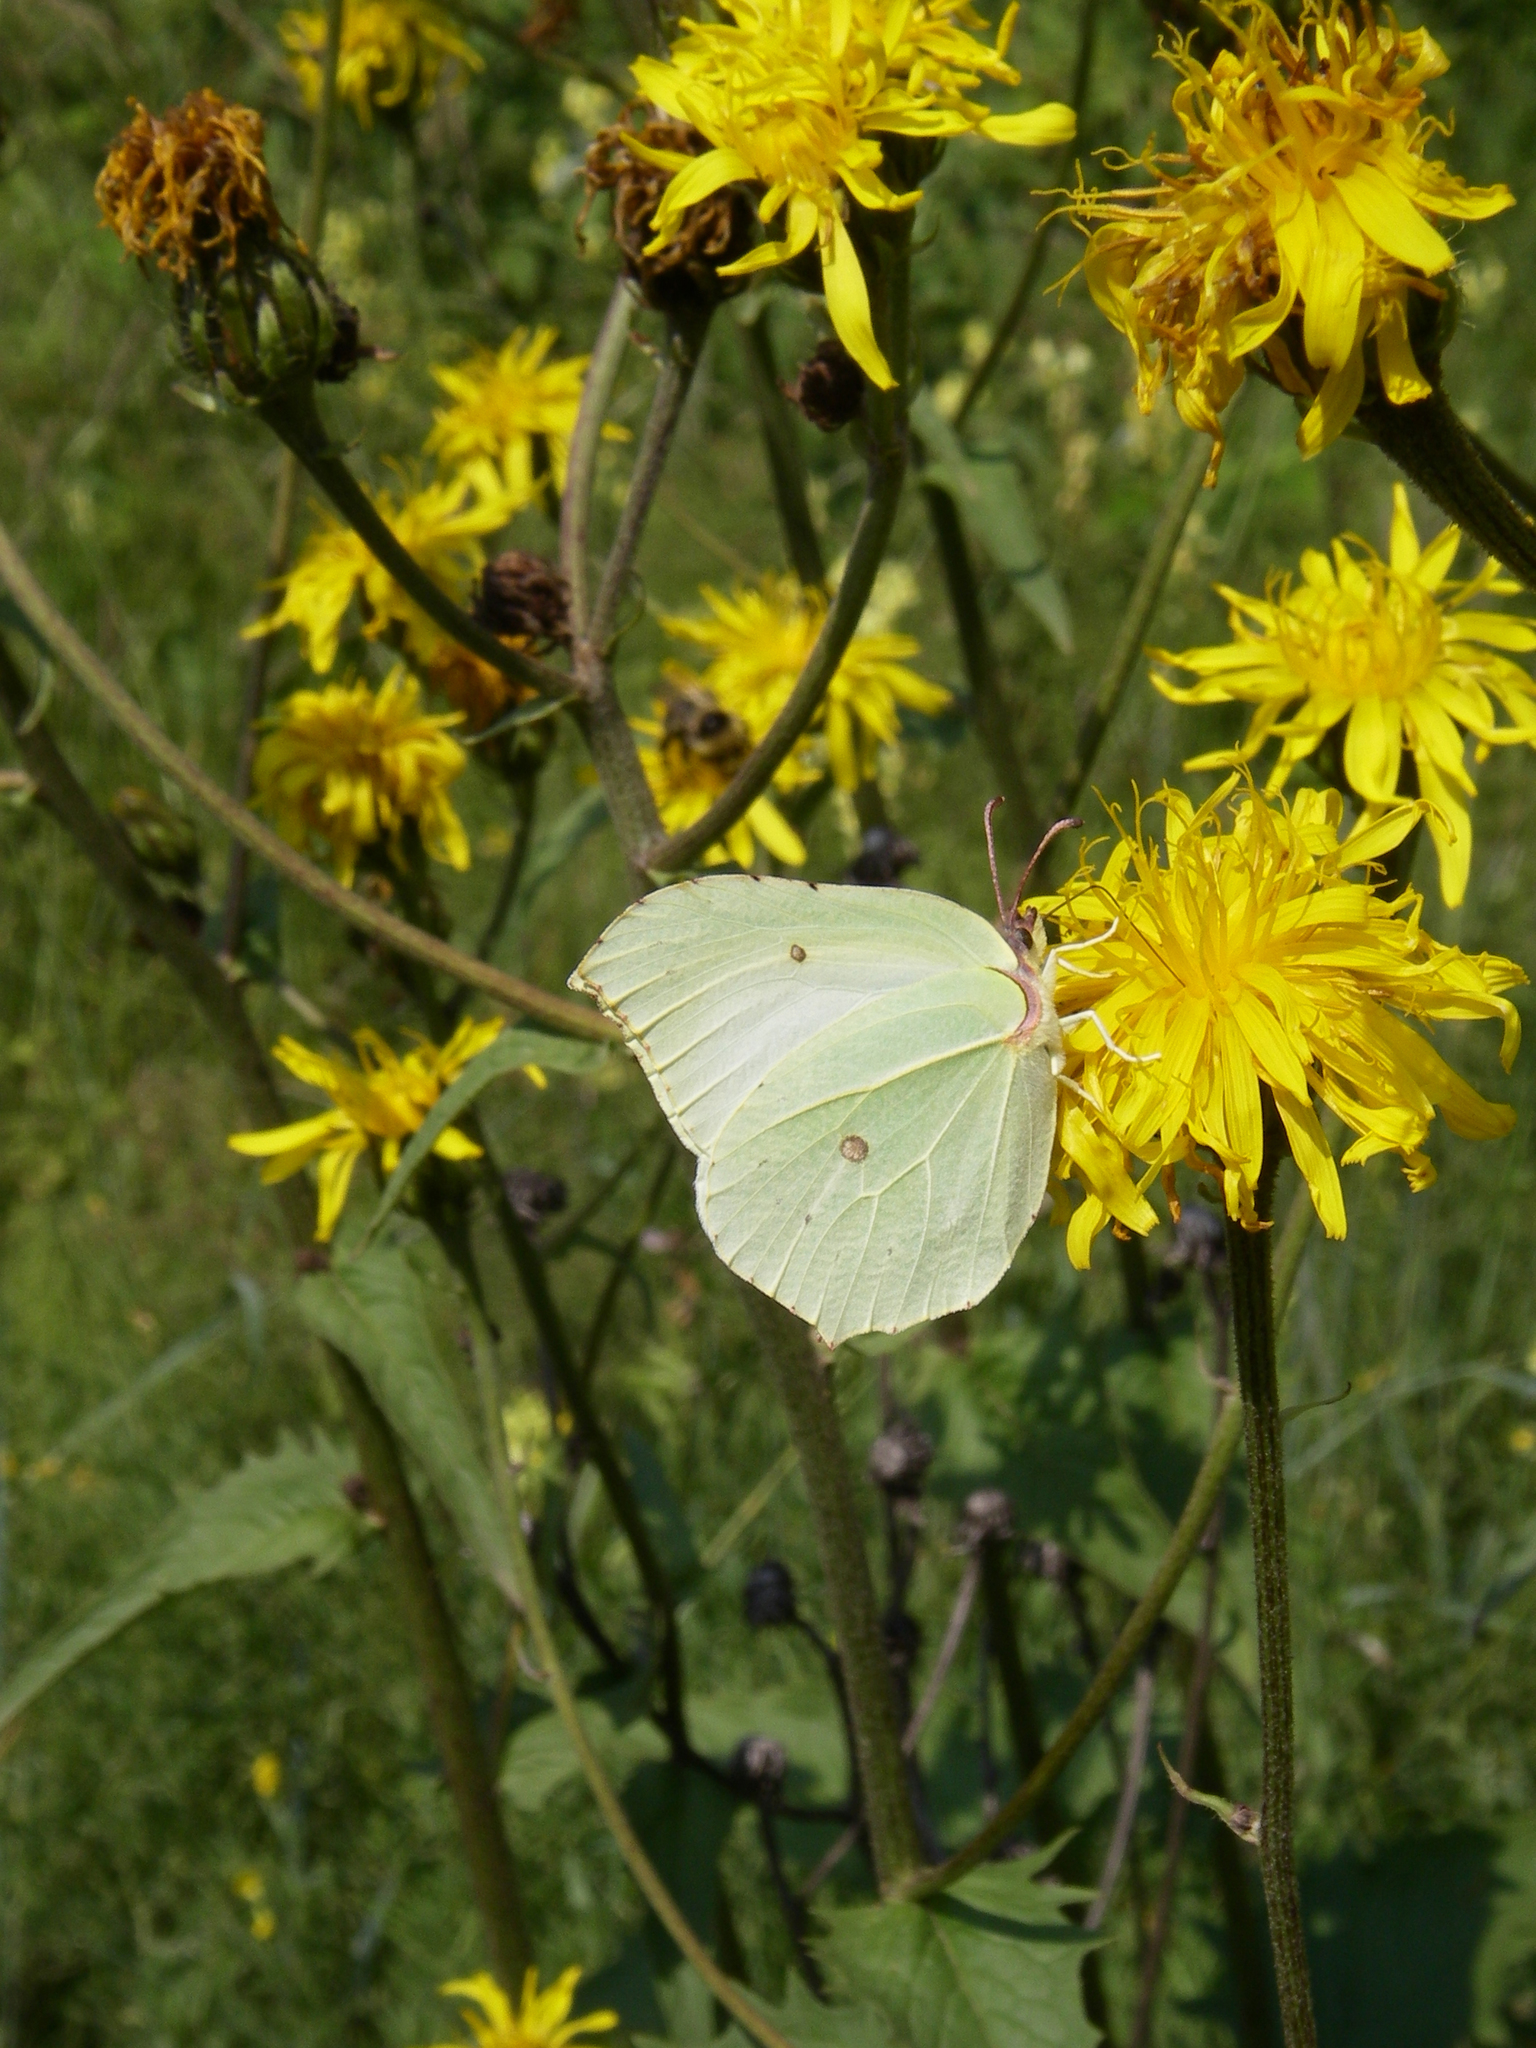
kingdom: Plantae
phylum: Tracheophyta
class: Magnoliopsida
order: Asterales
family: Asteraceae
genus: Crepis
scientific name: Crepis sibirica
